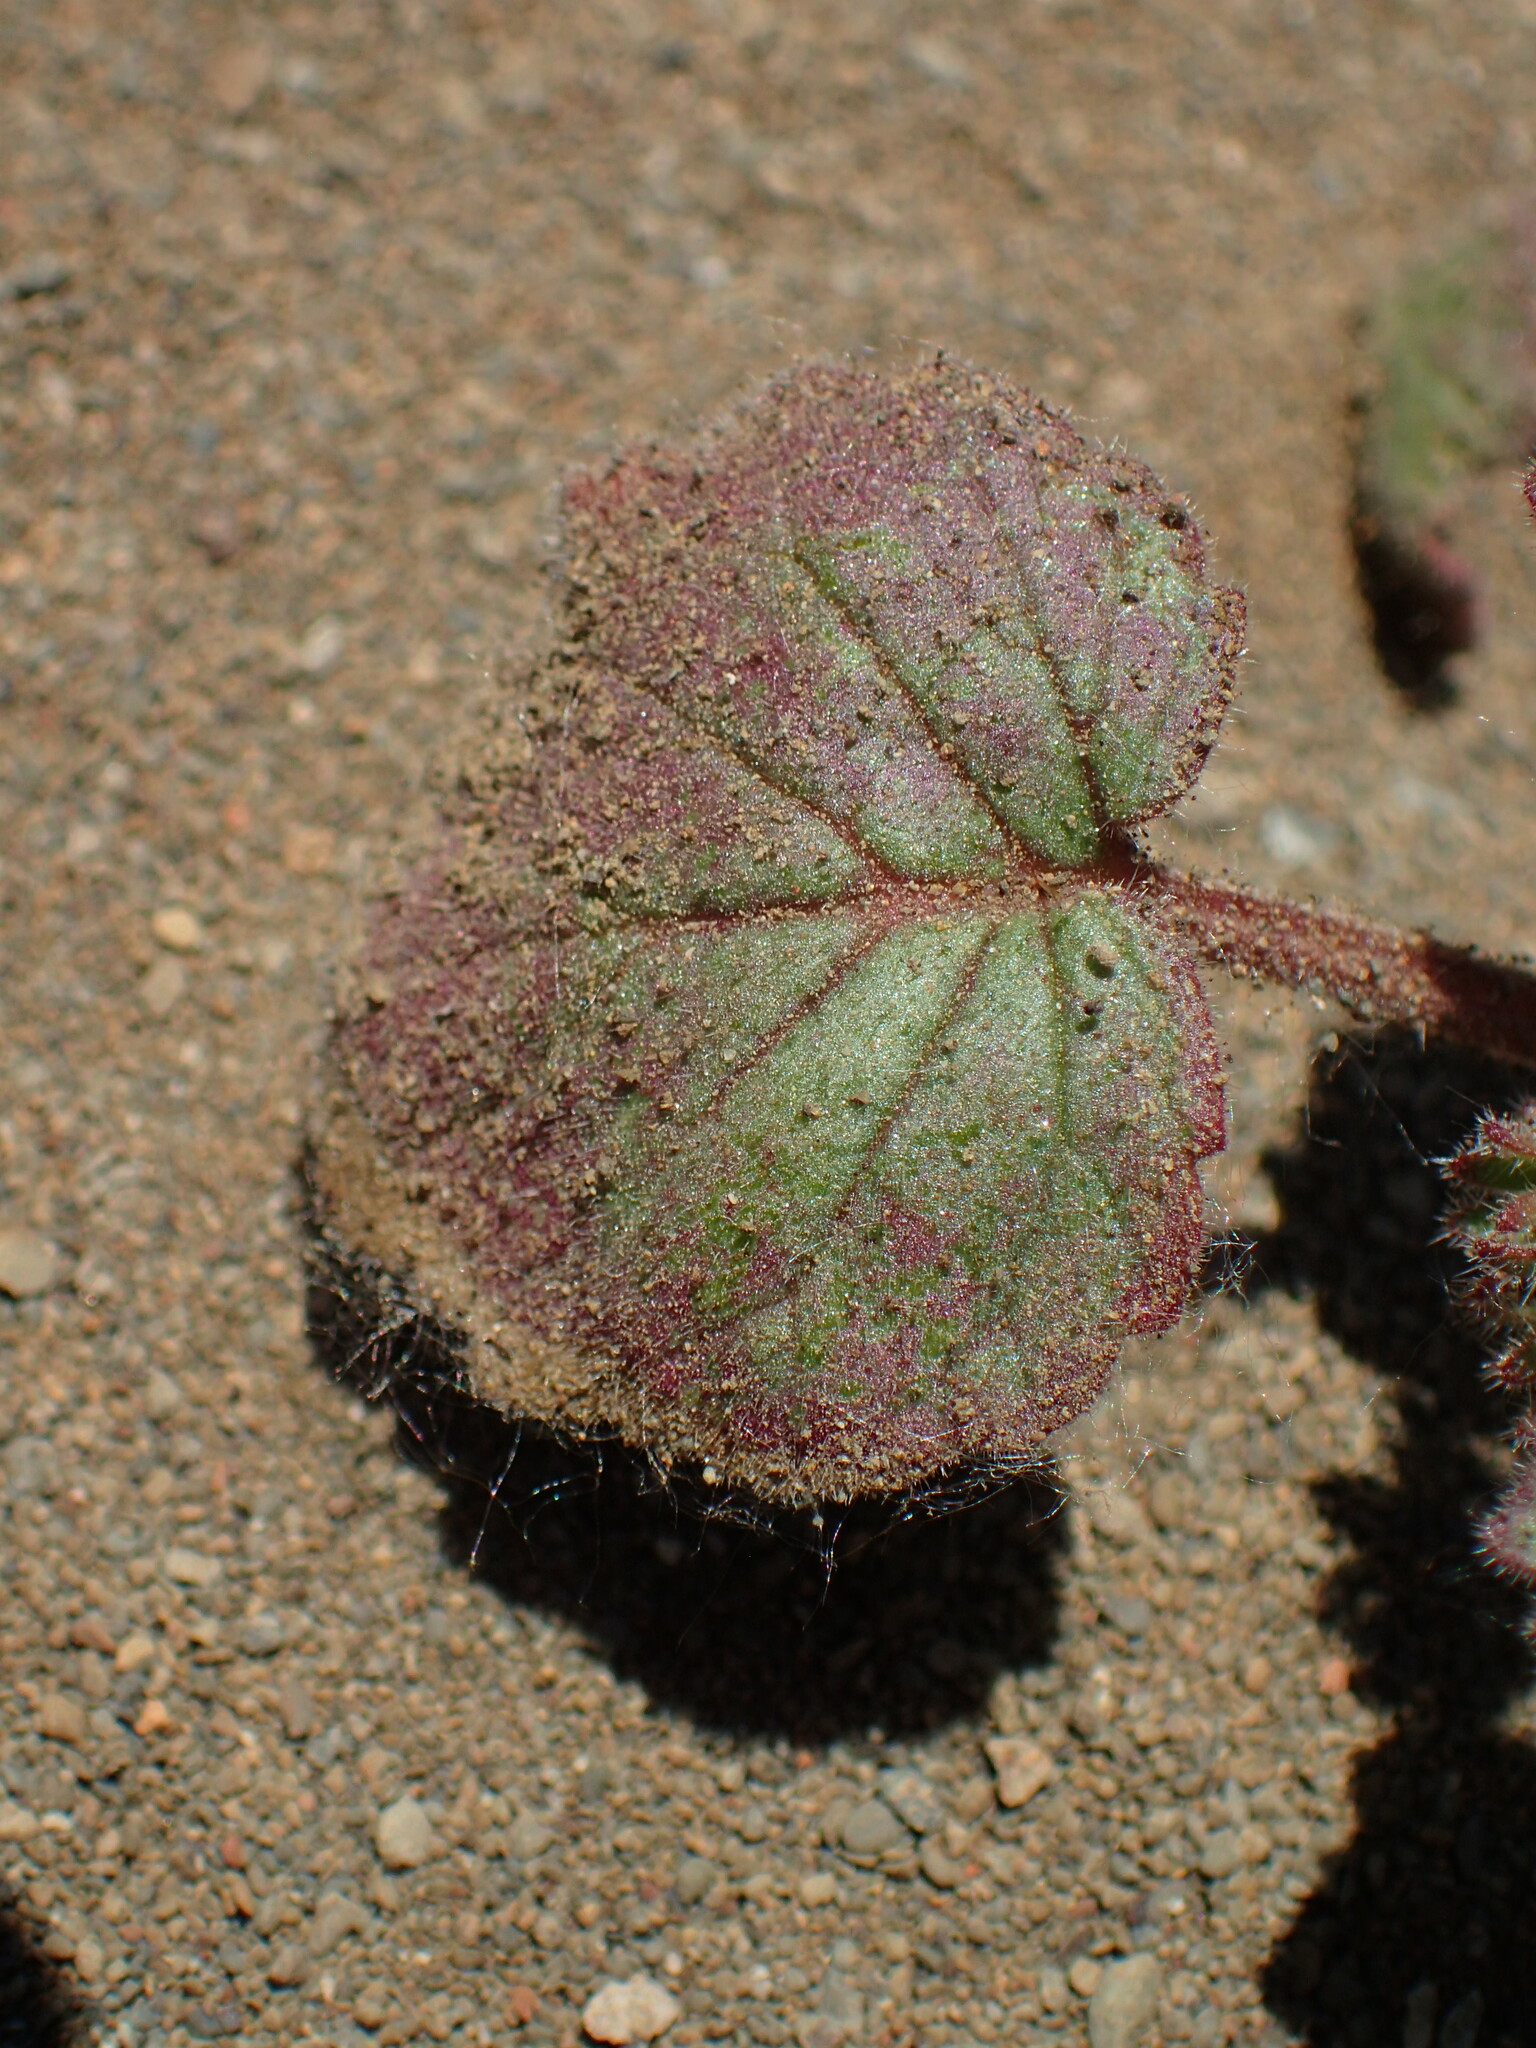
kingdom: Plantae
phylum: Tracheophyta
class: Magnoliopsida
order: Boraginales
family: Hydrophyllaceae
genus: Phacelia
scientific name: Phacelia longipes
